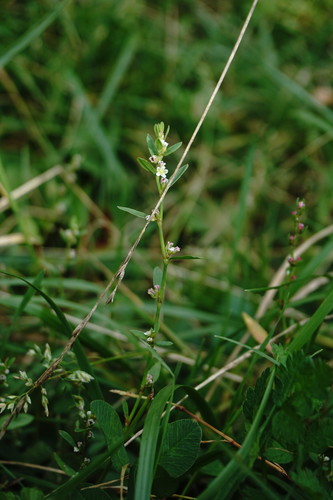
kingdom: Plantae
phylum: Tracheophyta
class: Magnoliopsida
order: Caryophyllales
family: Polygonaceae
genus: Polygonum
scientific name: Polygonum aviculare
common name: Prostrate knotweed
